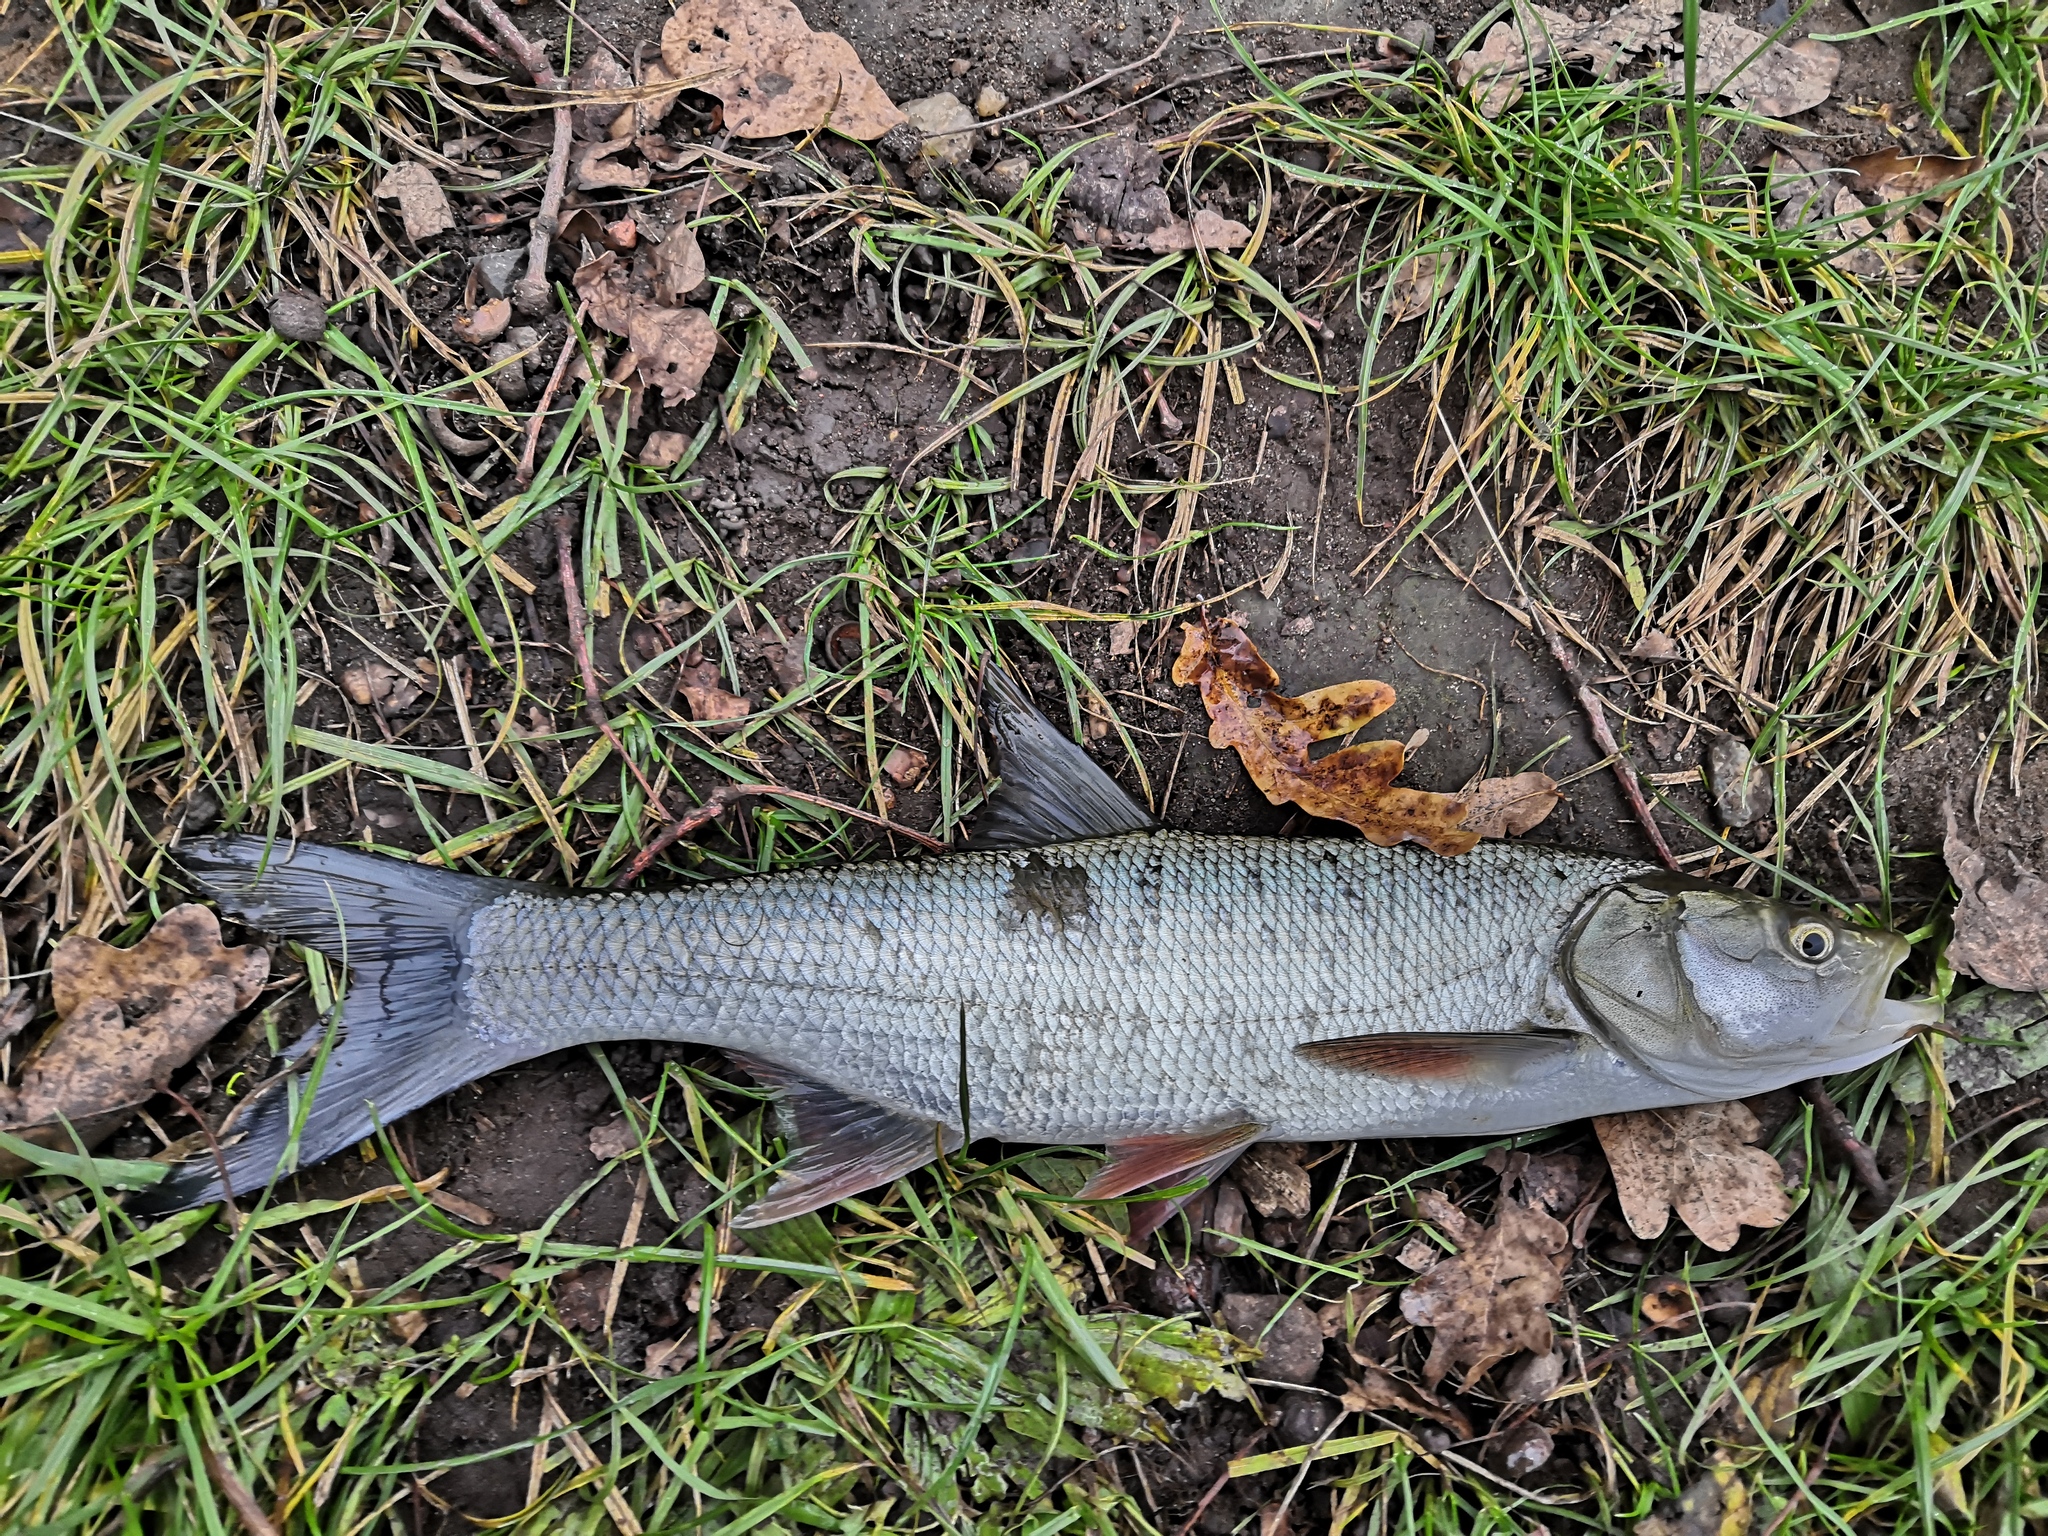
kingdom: Animalia
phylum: Chordata
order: Cypriniformes
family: Cyprinidae
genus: Leuciscus
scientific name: Leuciscus aspius
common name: Asp
